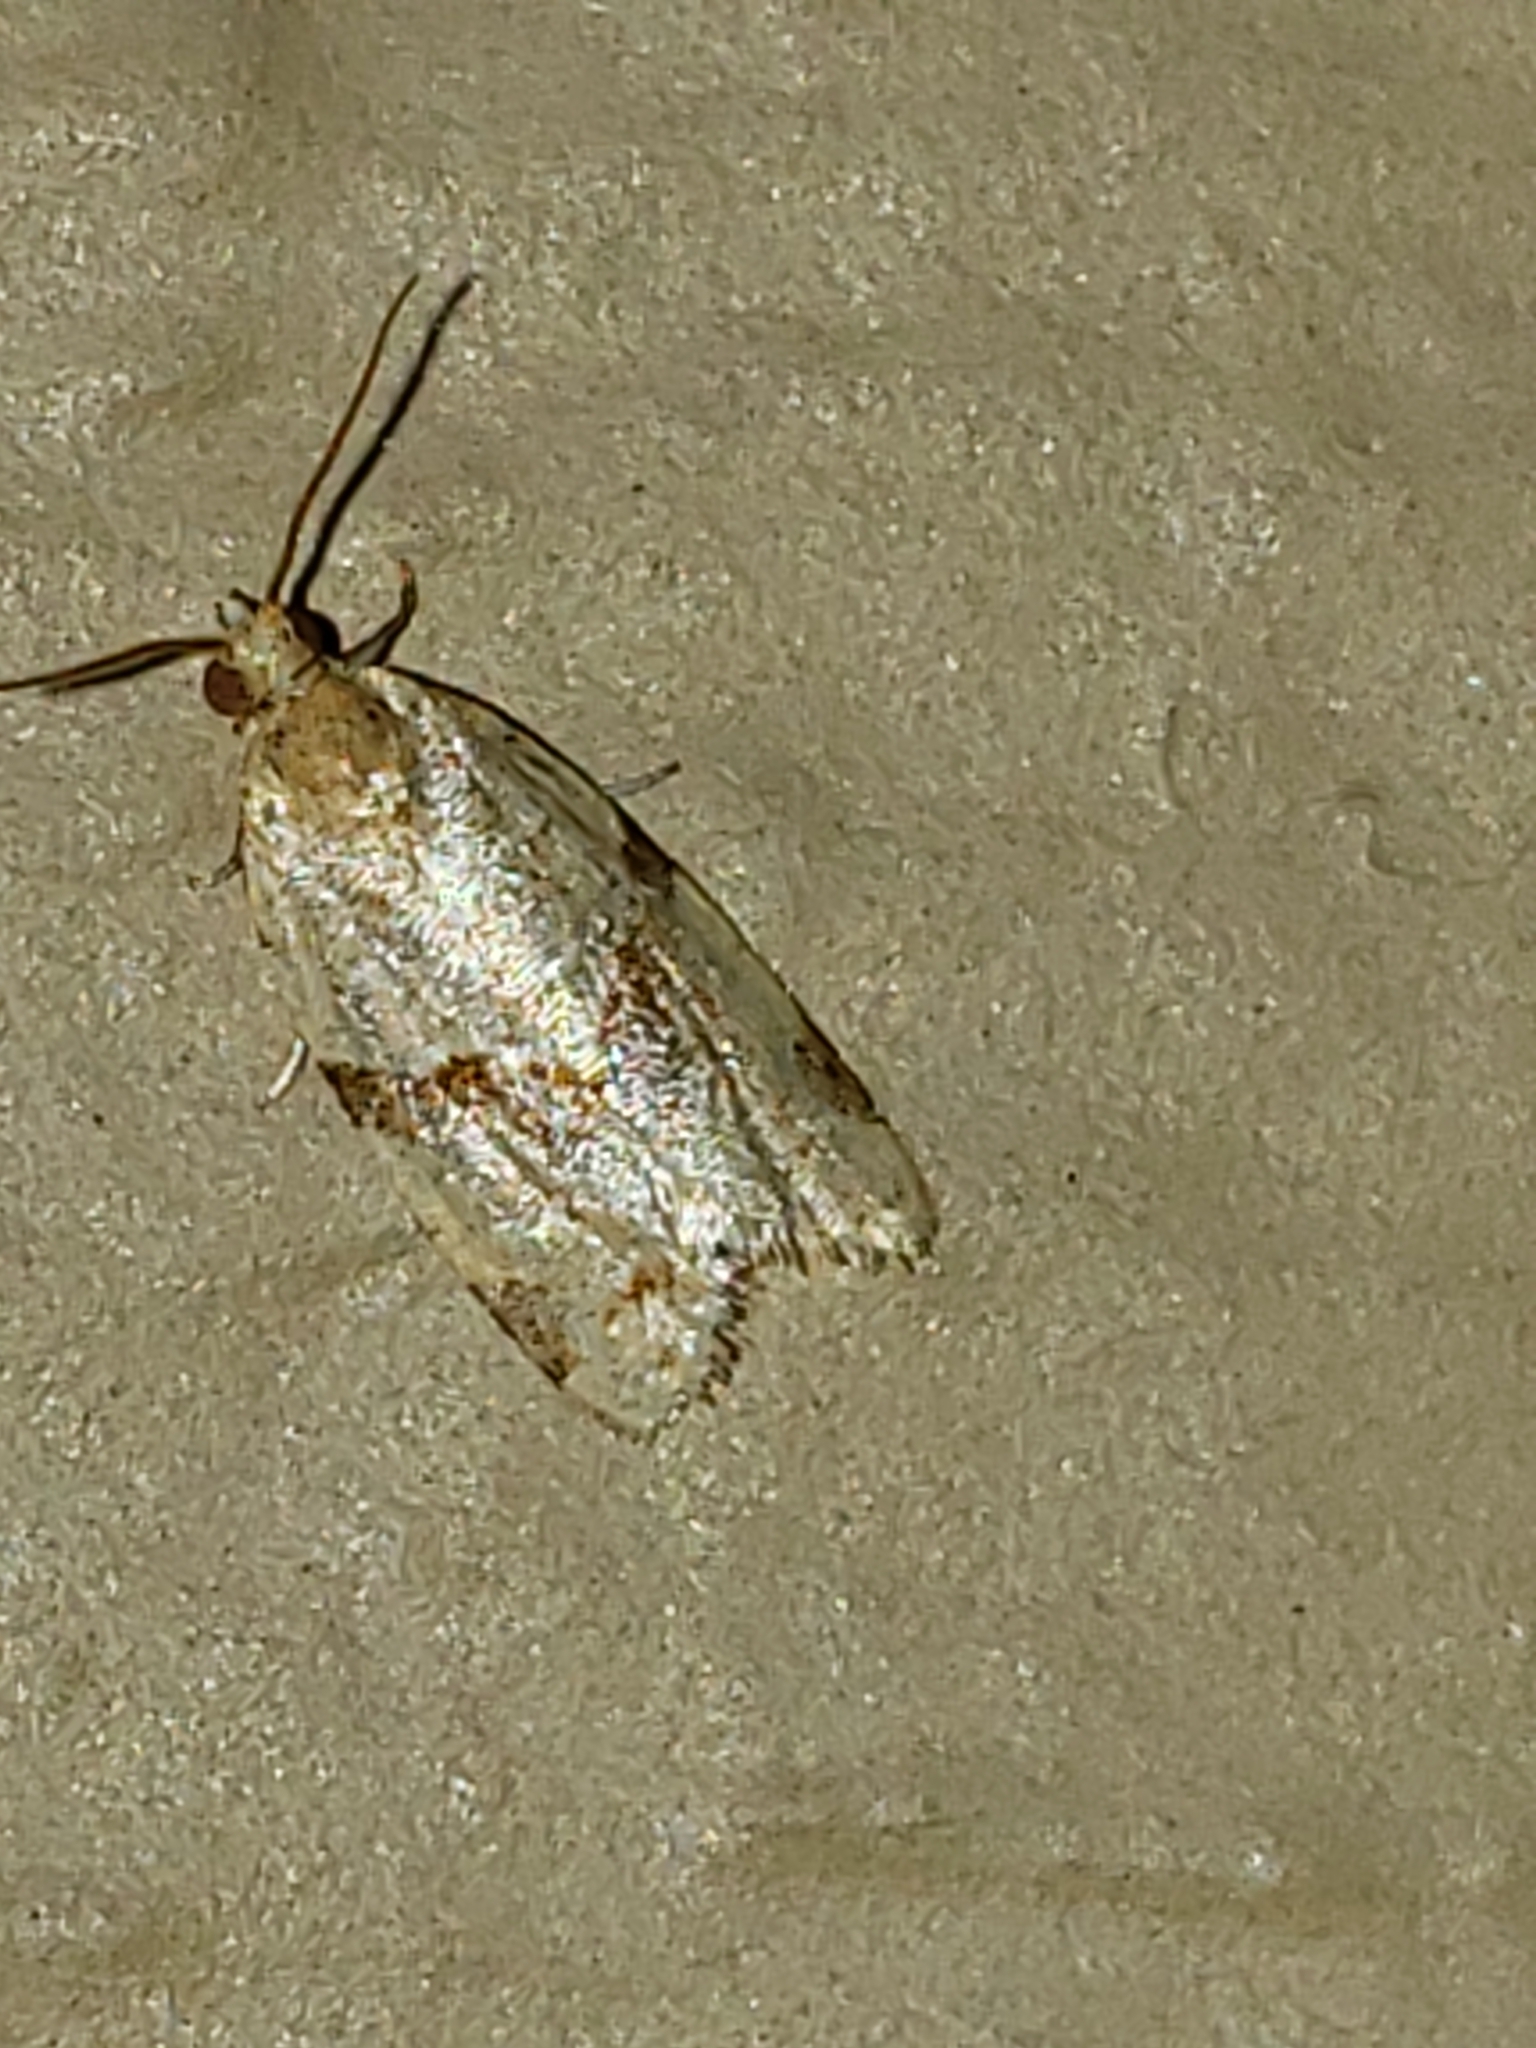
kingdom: Animalia
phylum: Arthropoda
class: Insecta
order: Lepidoptera
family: Tortricidae
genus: Clepsis
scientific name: Clepsis virescana
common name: Greenish apple moth
